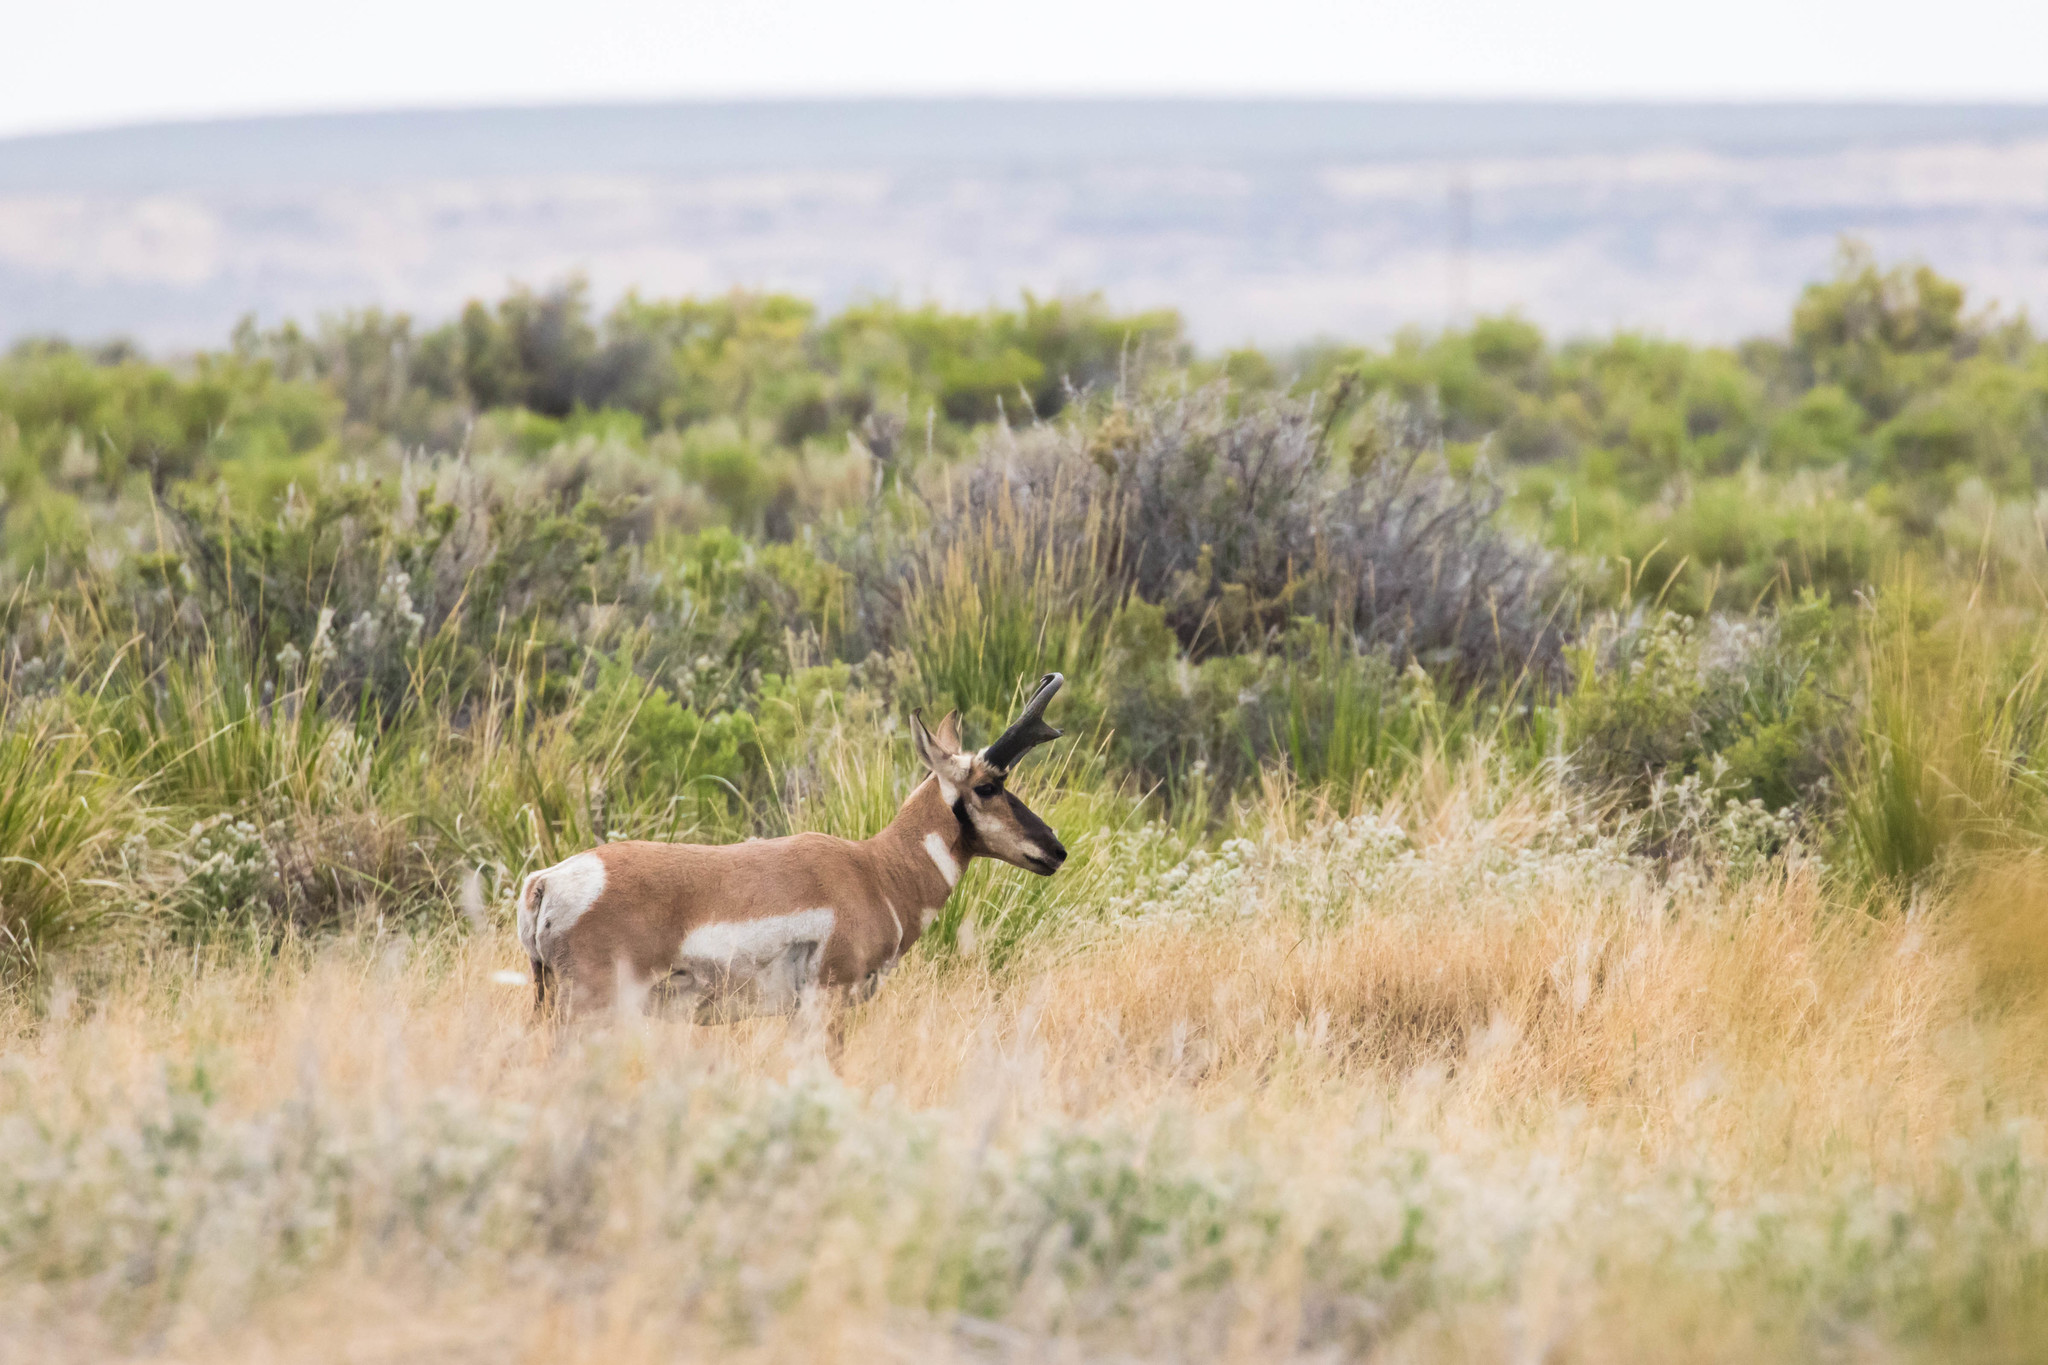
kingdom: Animalia
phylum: Chordata
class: Mammalia
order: Artiodactyla
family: Antilocapridae
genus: Antilocapra
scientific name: Antilocapra americana
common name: Pronghorn
